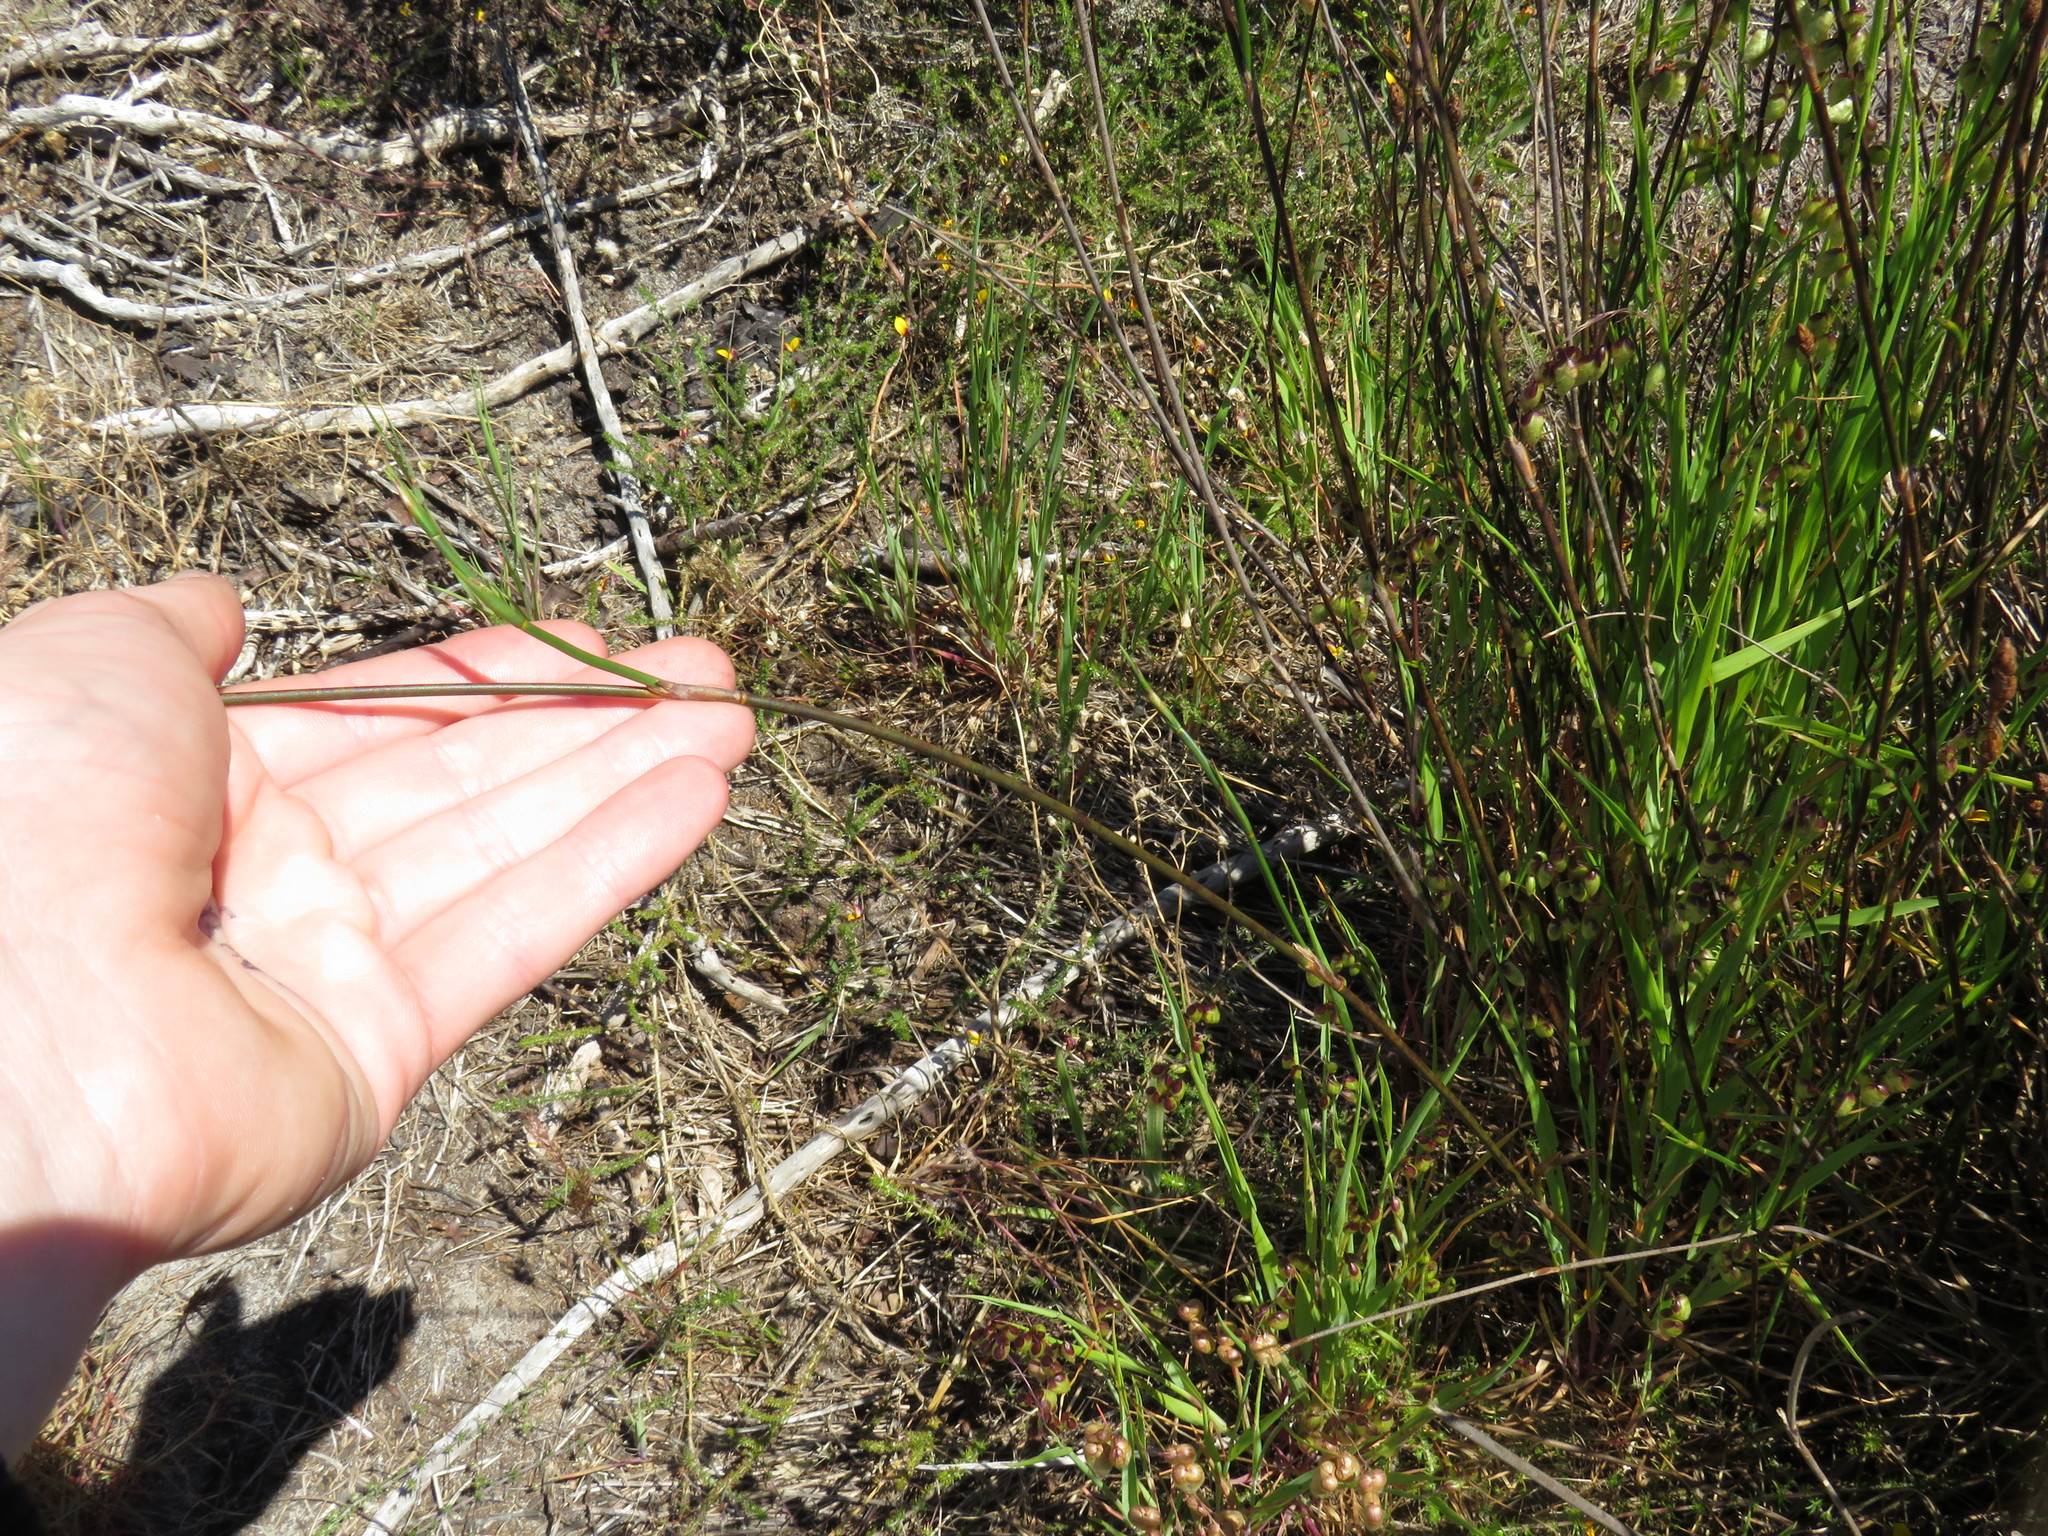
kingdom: Plantae
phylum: Tracheophyta
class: Liliopsida
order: Poales
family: Restionaceae
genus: Restio
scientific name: Restio bifurcus
